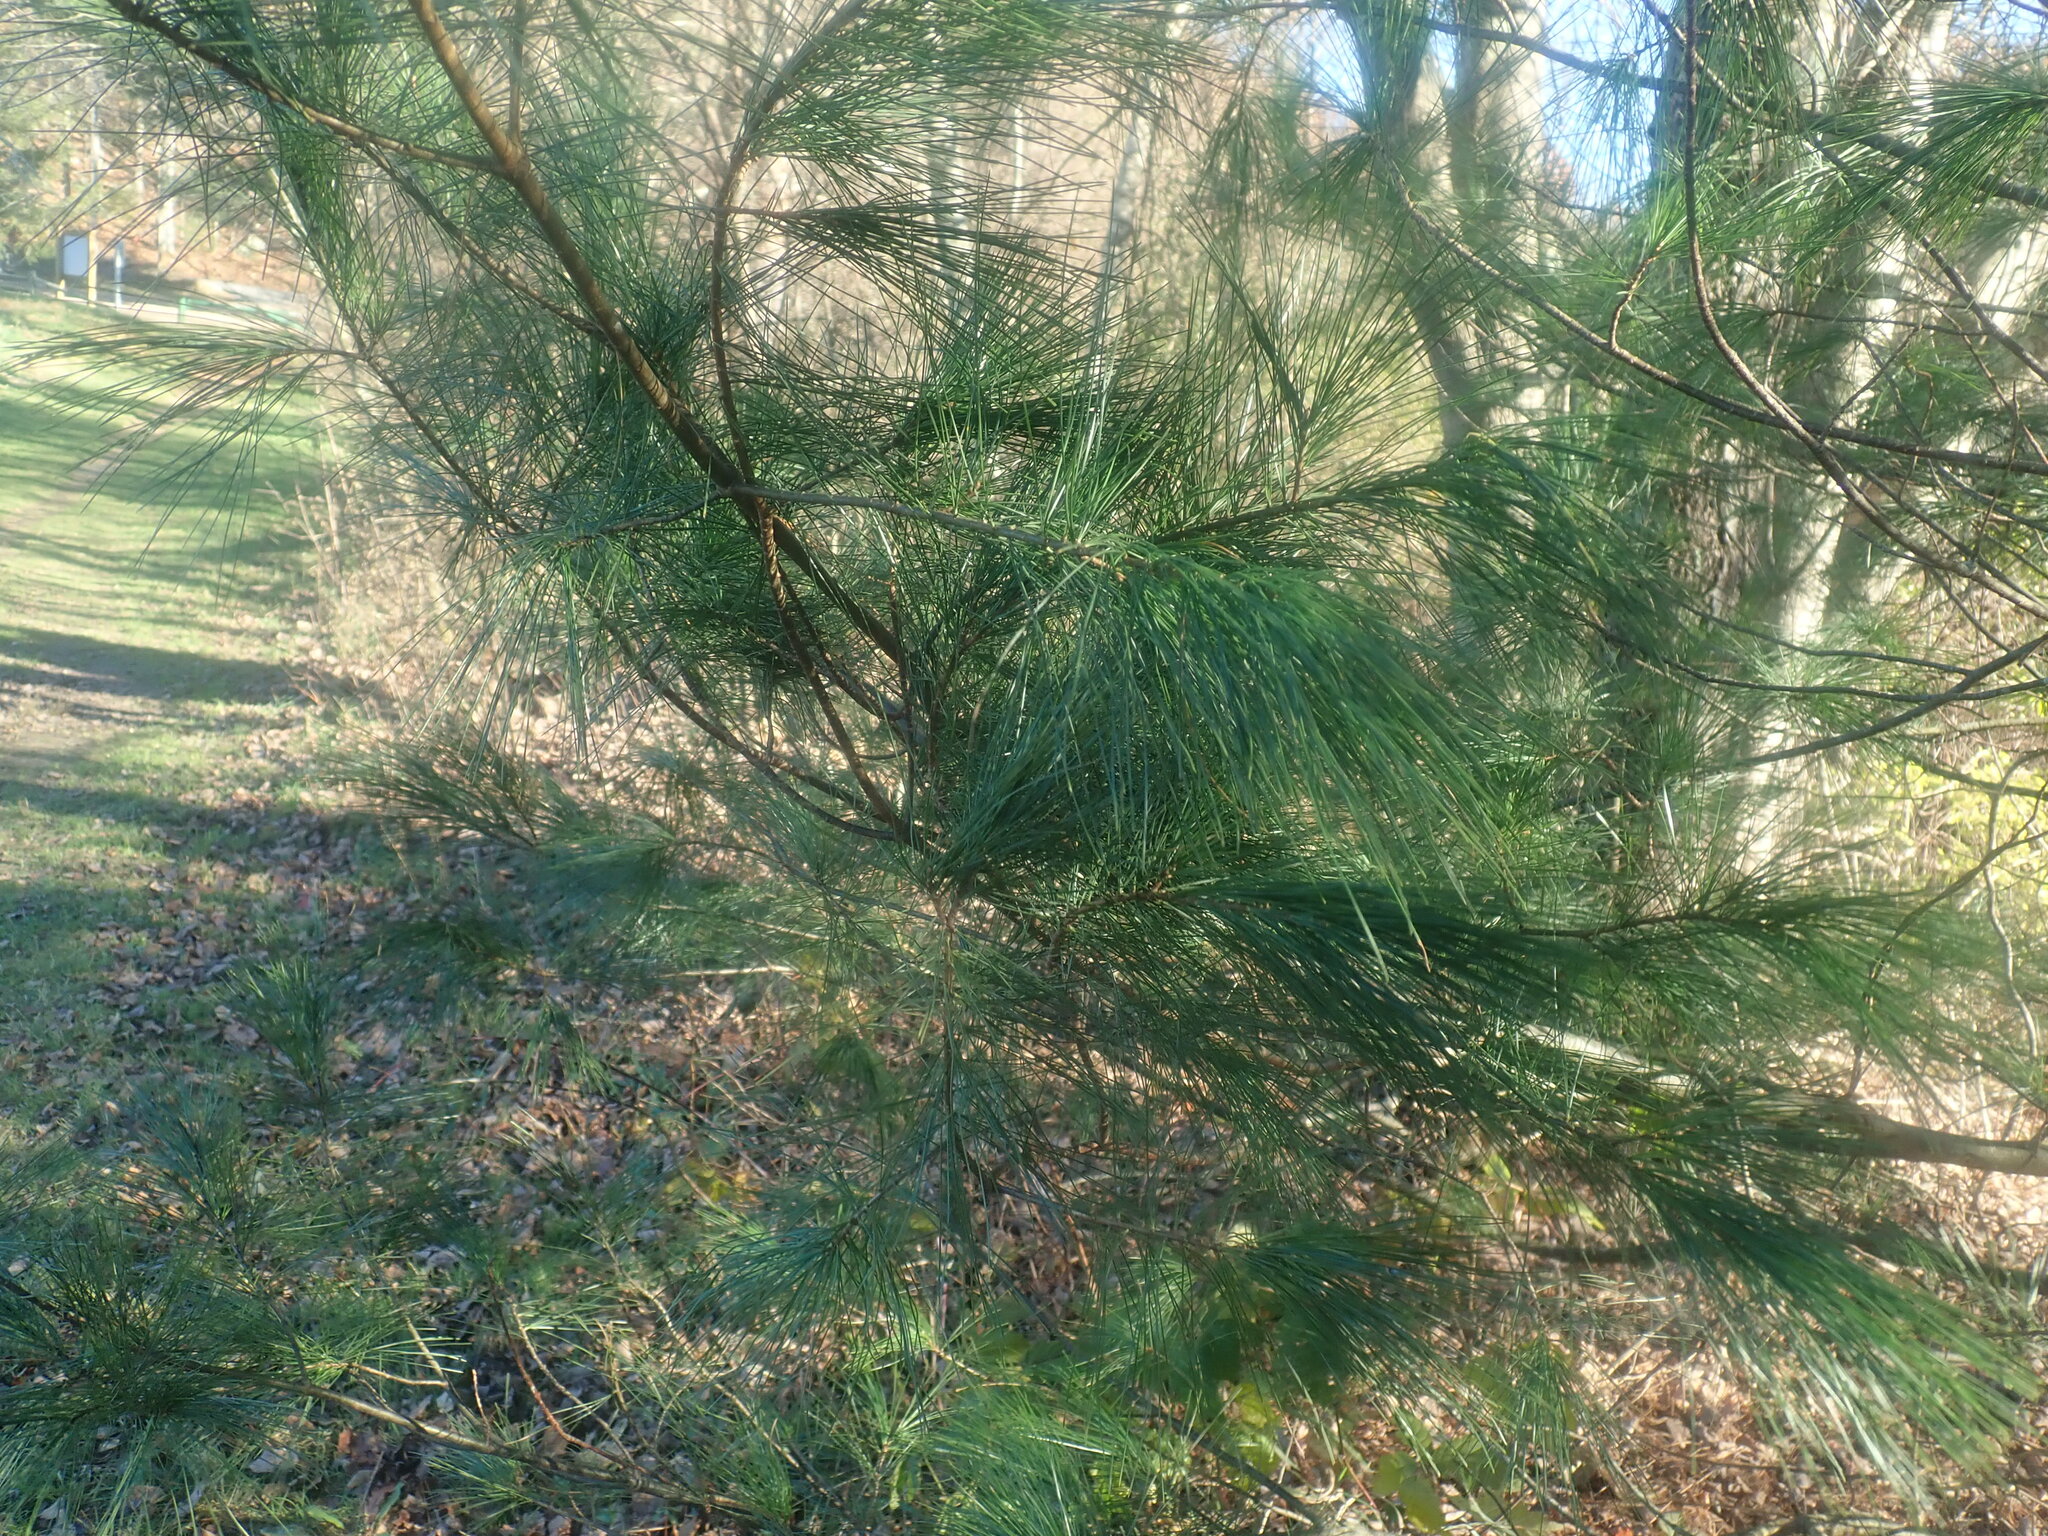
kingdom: Plantae
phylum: Tracheophyta
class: Pinopsida
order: Pinales
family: Pinaceae
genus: Pinus
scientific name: Pinus strobus
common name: Weymouth pine
